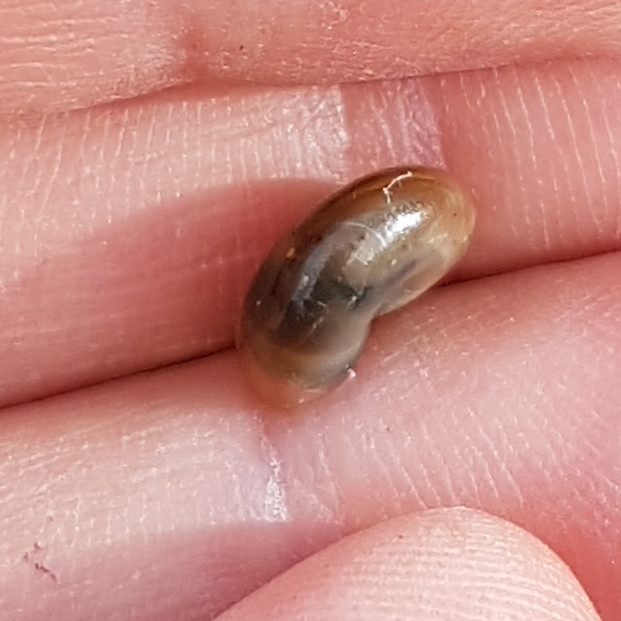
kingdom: Animalia
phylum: Mollusca
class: Gastropoda
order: Stylommatophora
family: Oxychilidae
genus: Oxychilus
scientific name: Oxychilus draparnaudi
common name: Draparnaud's glass snail
